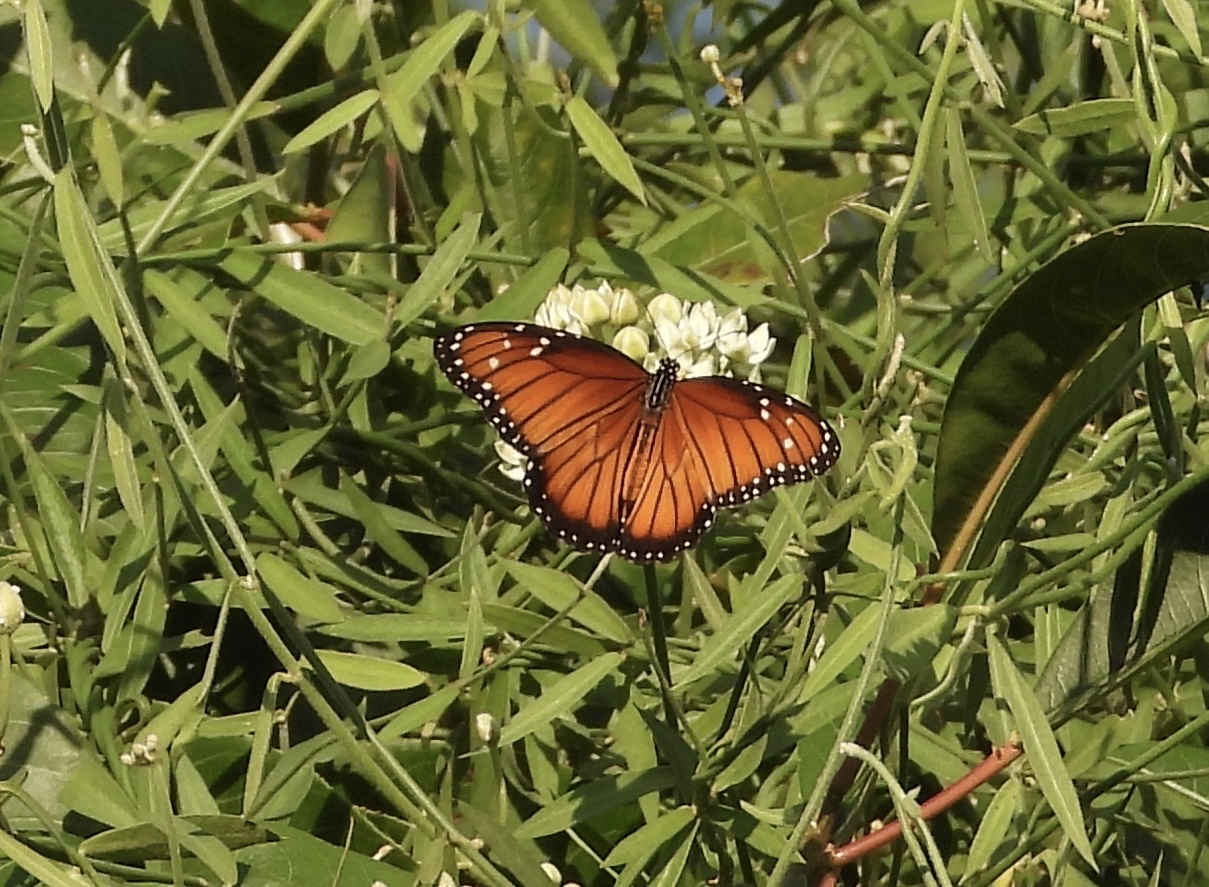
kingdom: Animalia
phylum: Arthropoda
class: Insecta
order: Lepidoptera
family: Nymphalidae
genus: Danaus
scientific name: Danaus eresimus
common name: Soldier
